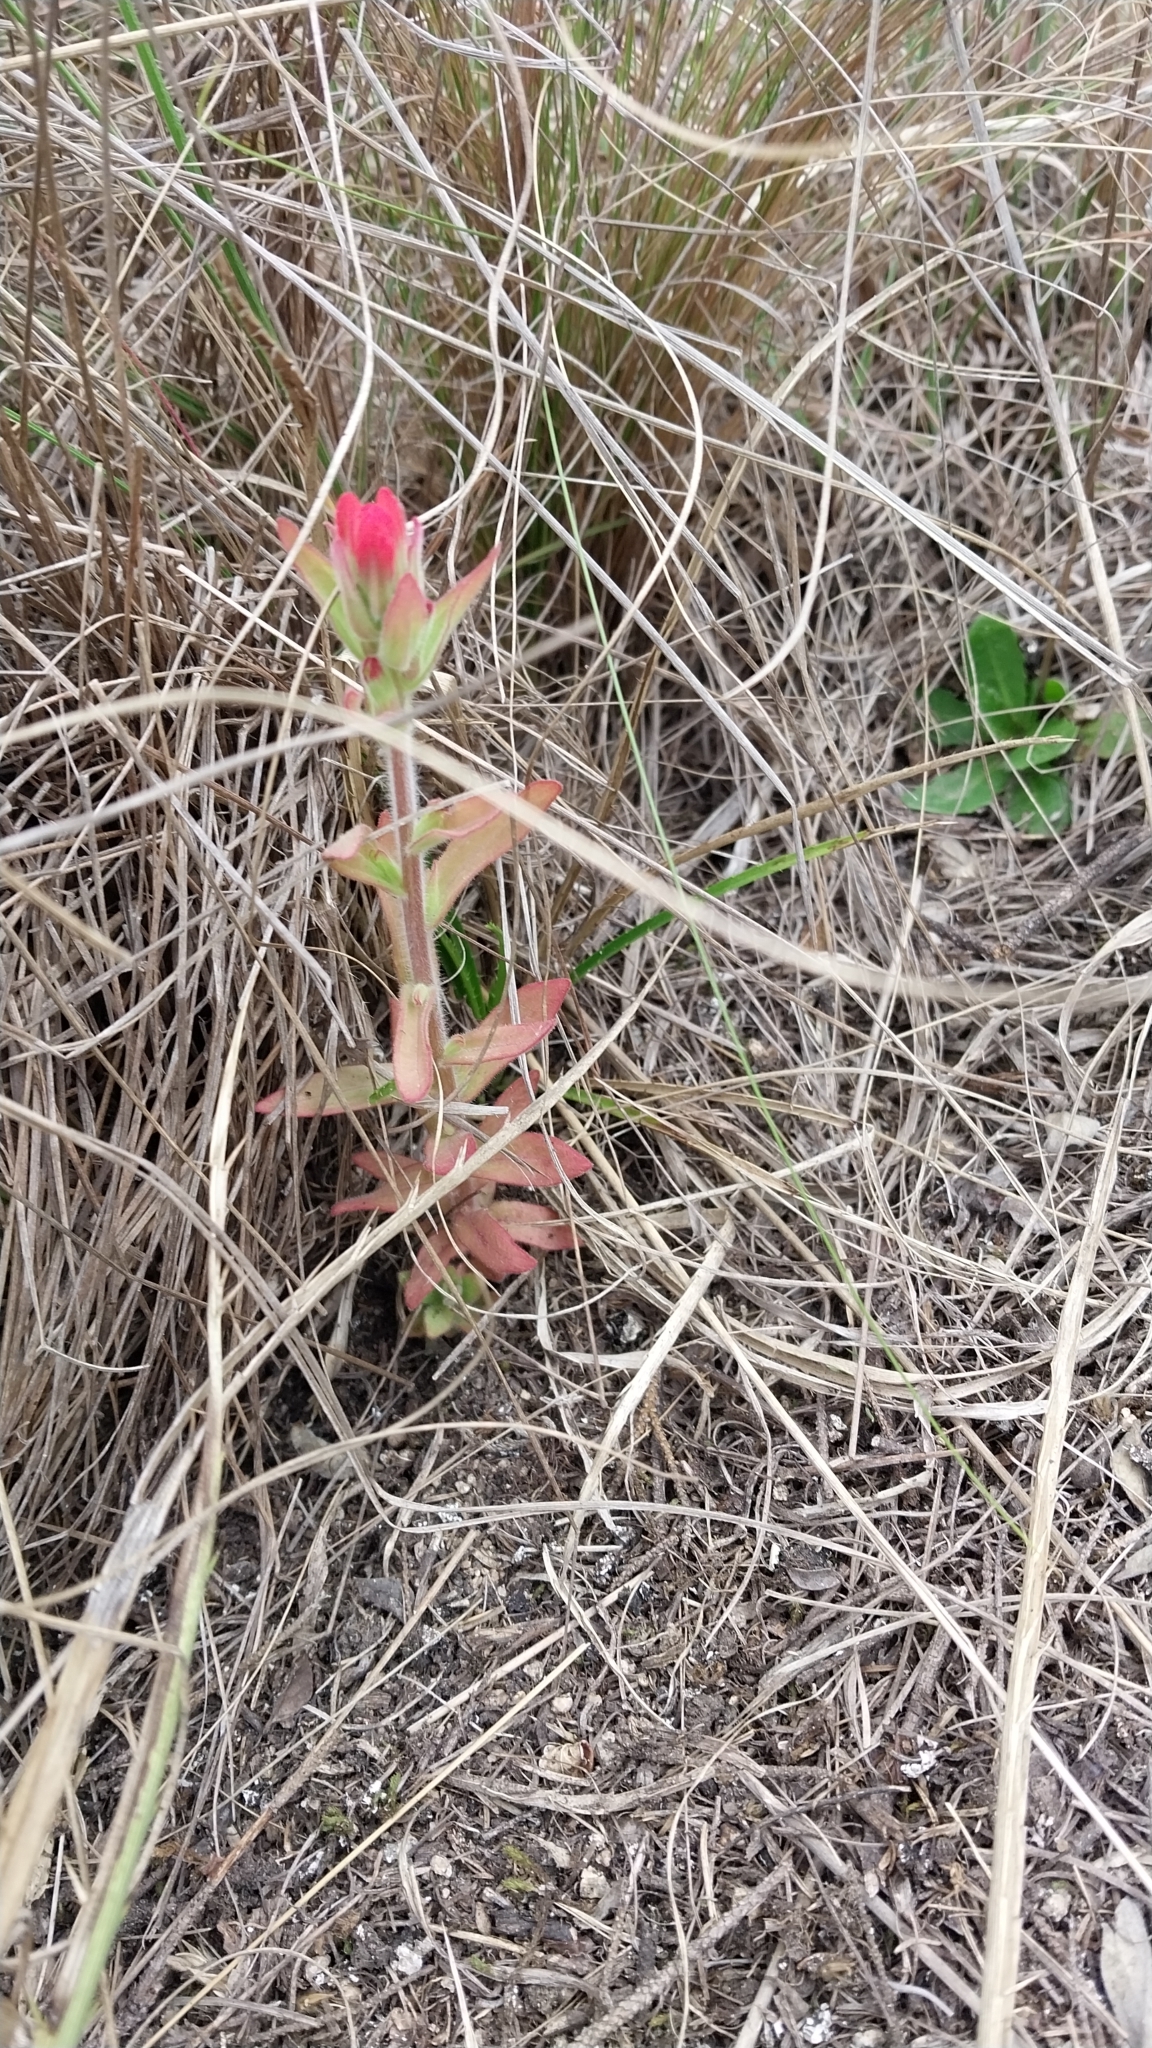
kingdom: Plantae
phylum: Tracheophyta
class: Magnoliopsida
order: Lamiales
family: Orobanchaceae
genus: Castilleja
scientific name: Castilleja arvensis
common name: Indian paintbrush
